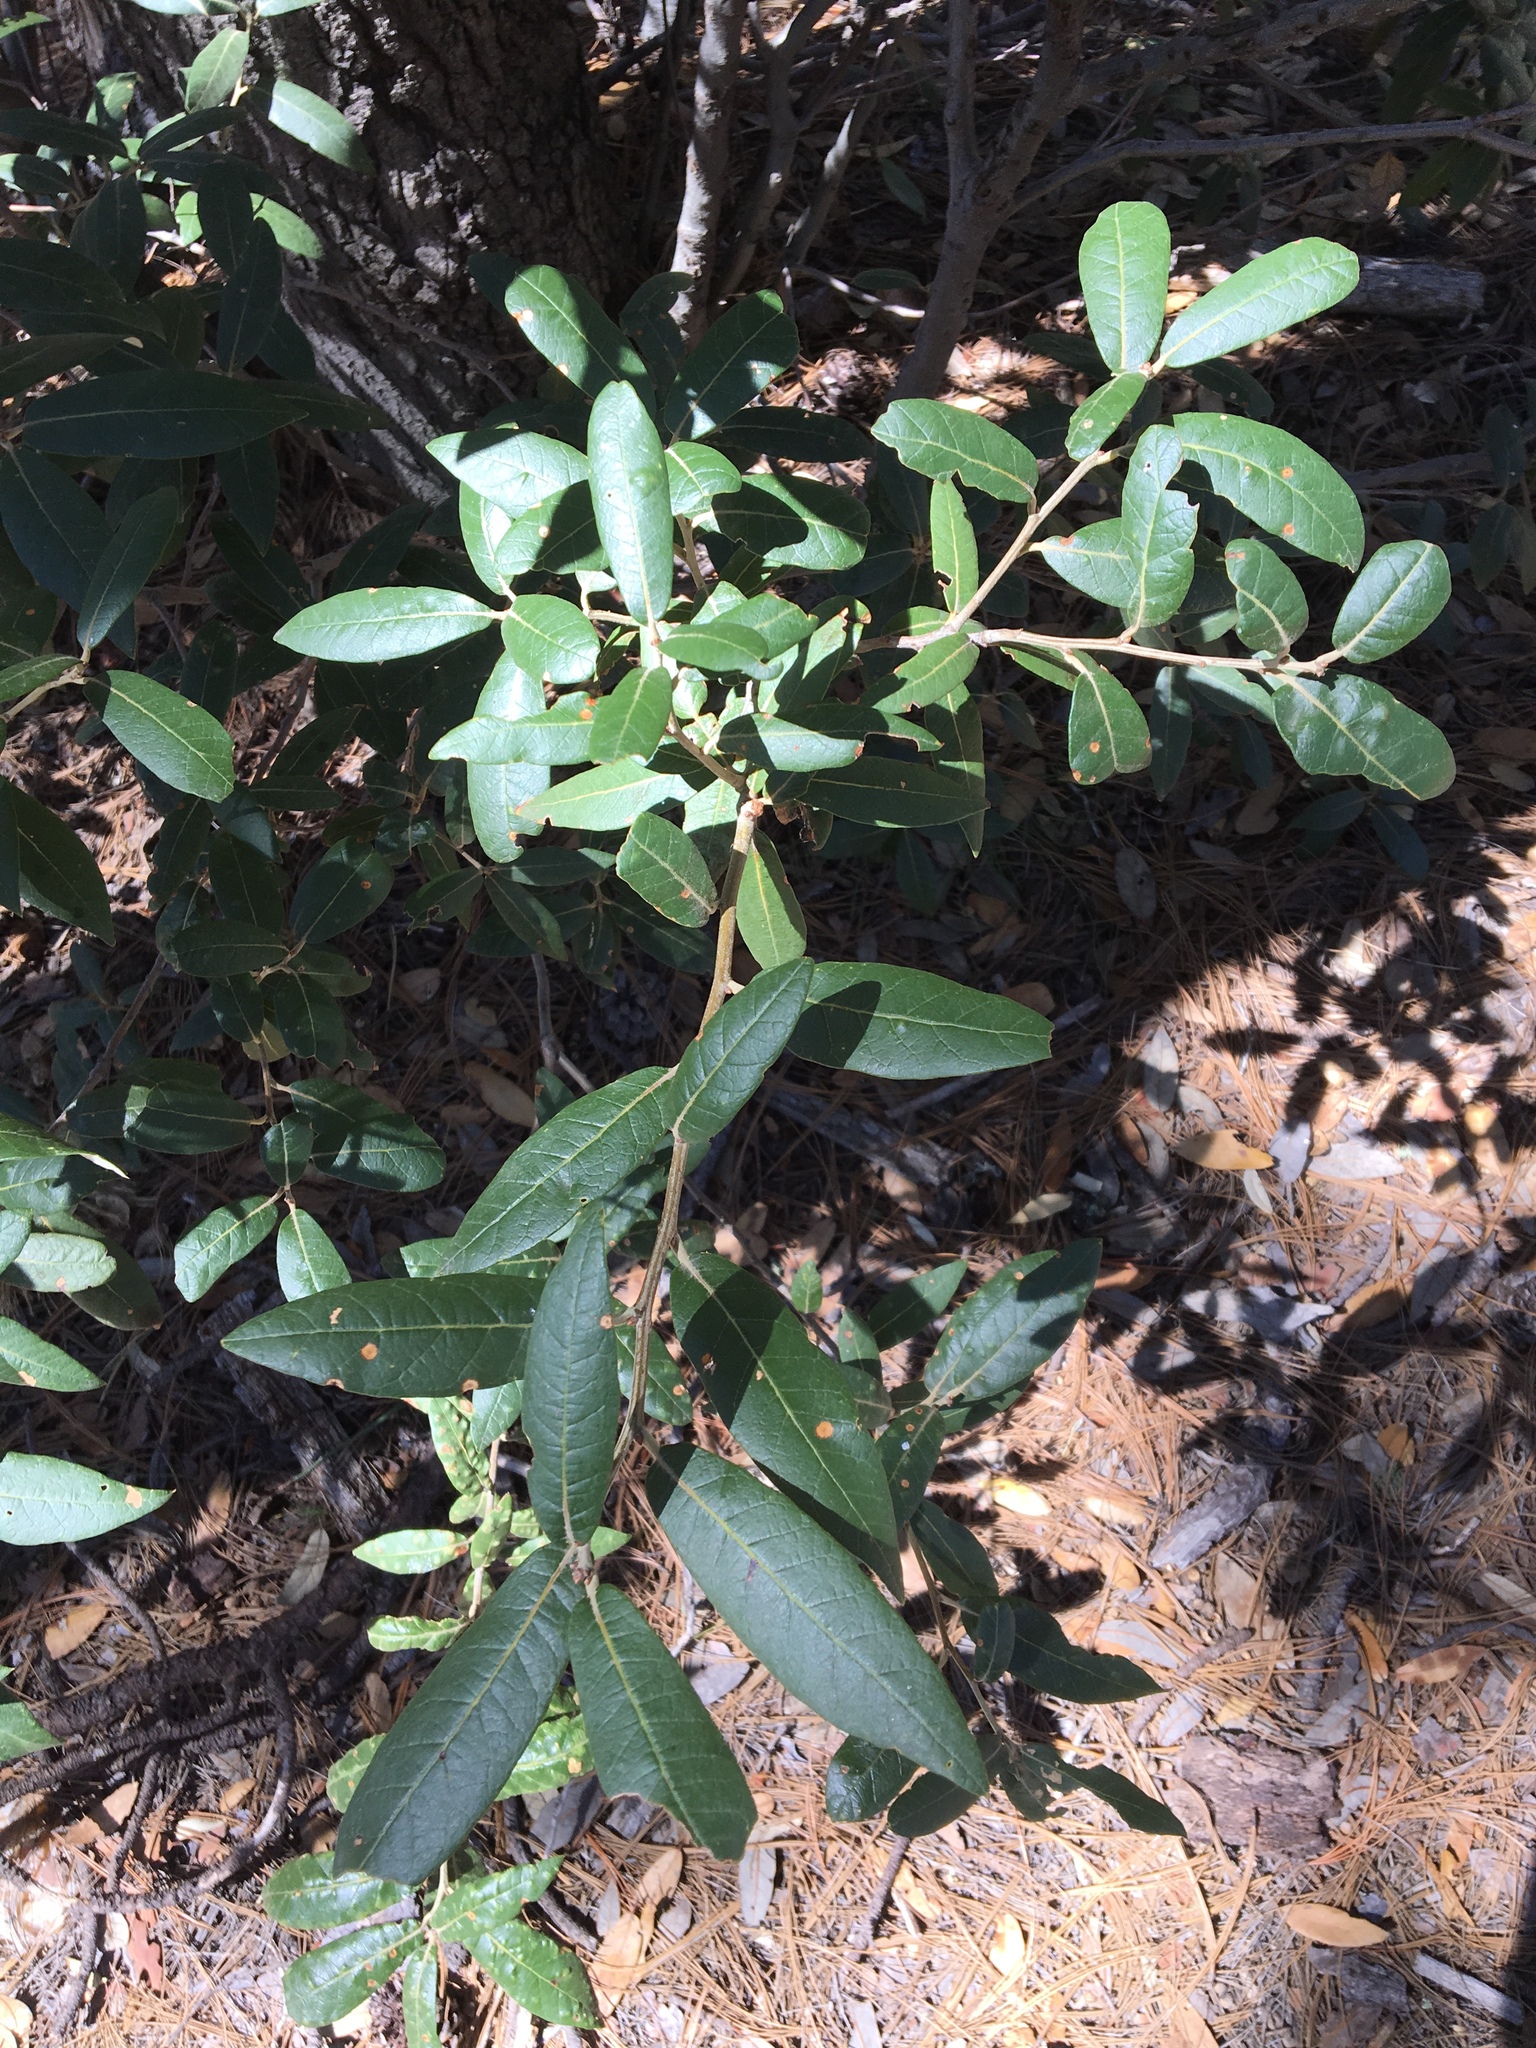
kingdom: Plantae
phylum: Tracheophyta
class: Magnoliopsida
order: Fagales
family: Fagaceae
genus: Quercus
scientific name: Quercus hypoleucoides
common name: Silverleaf oak
